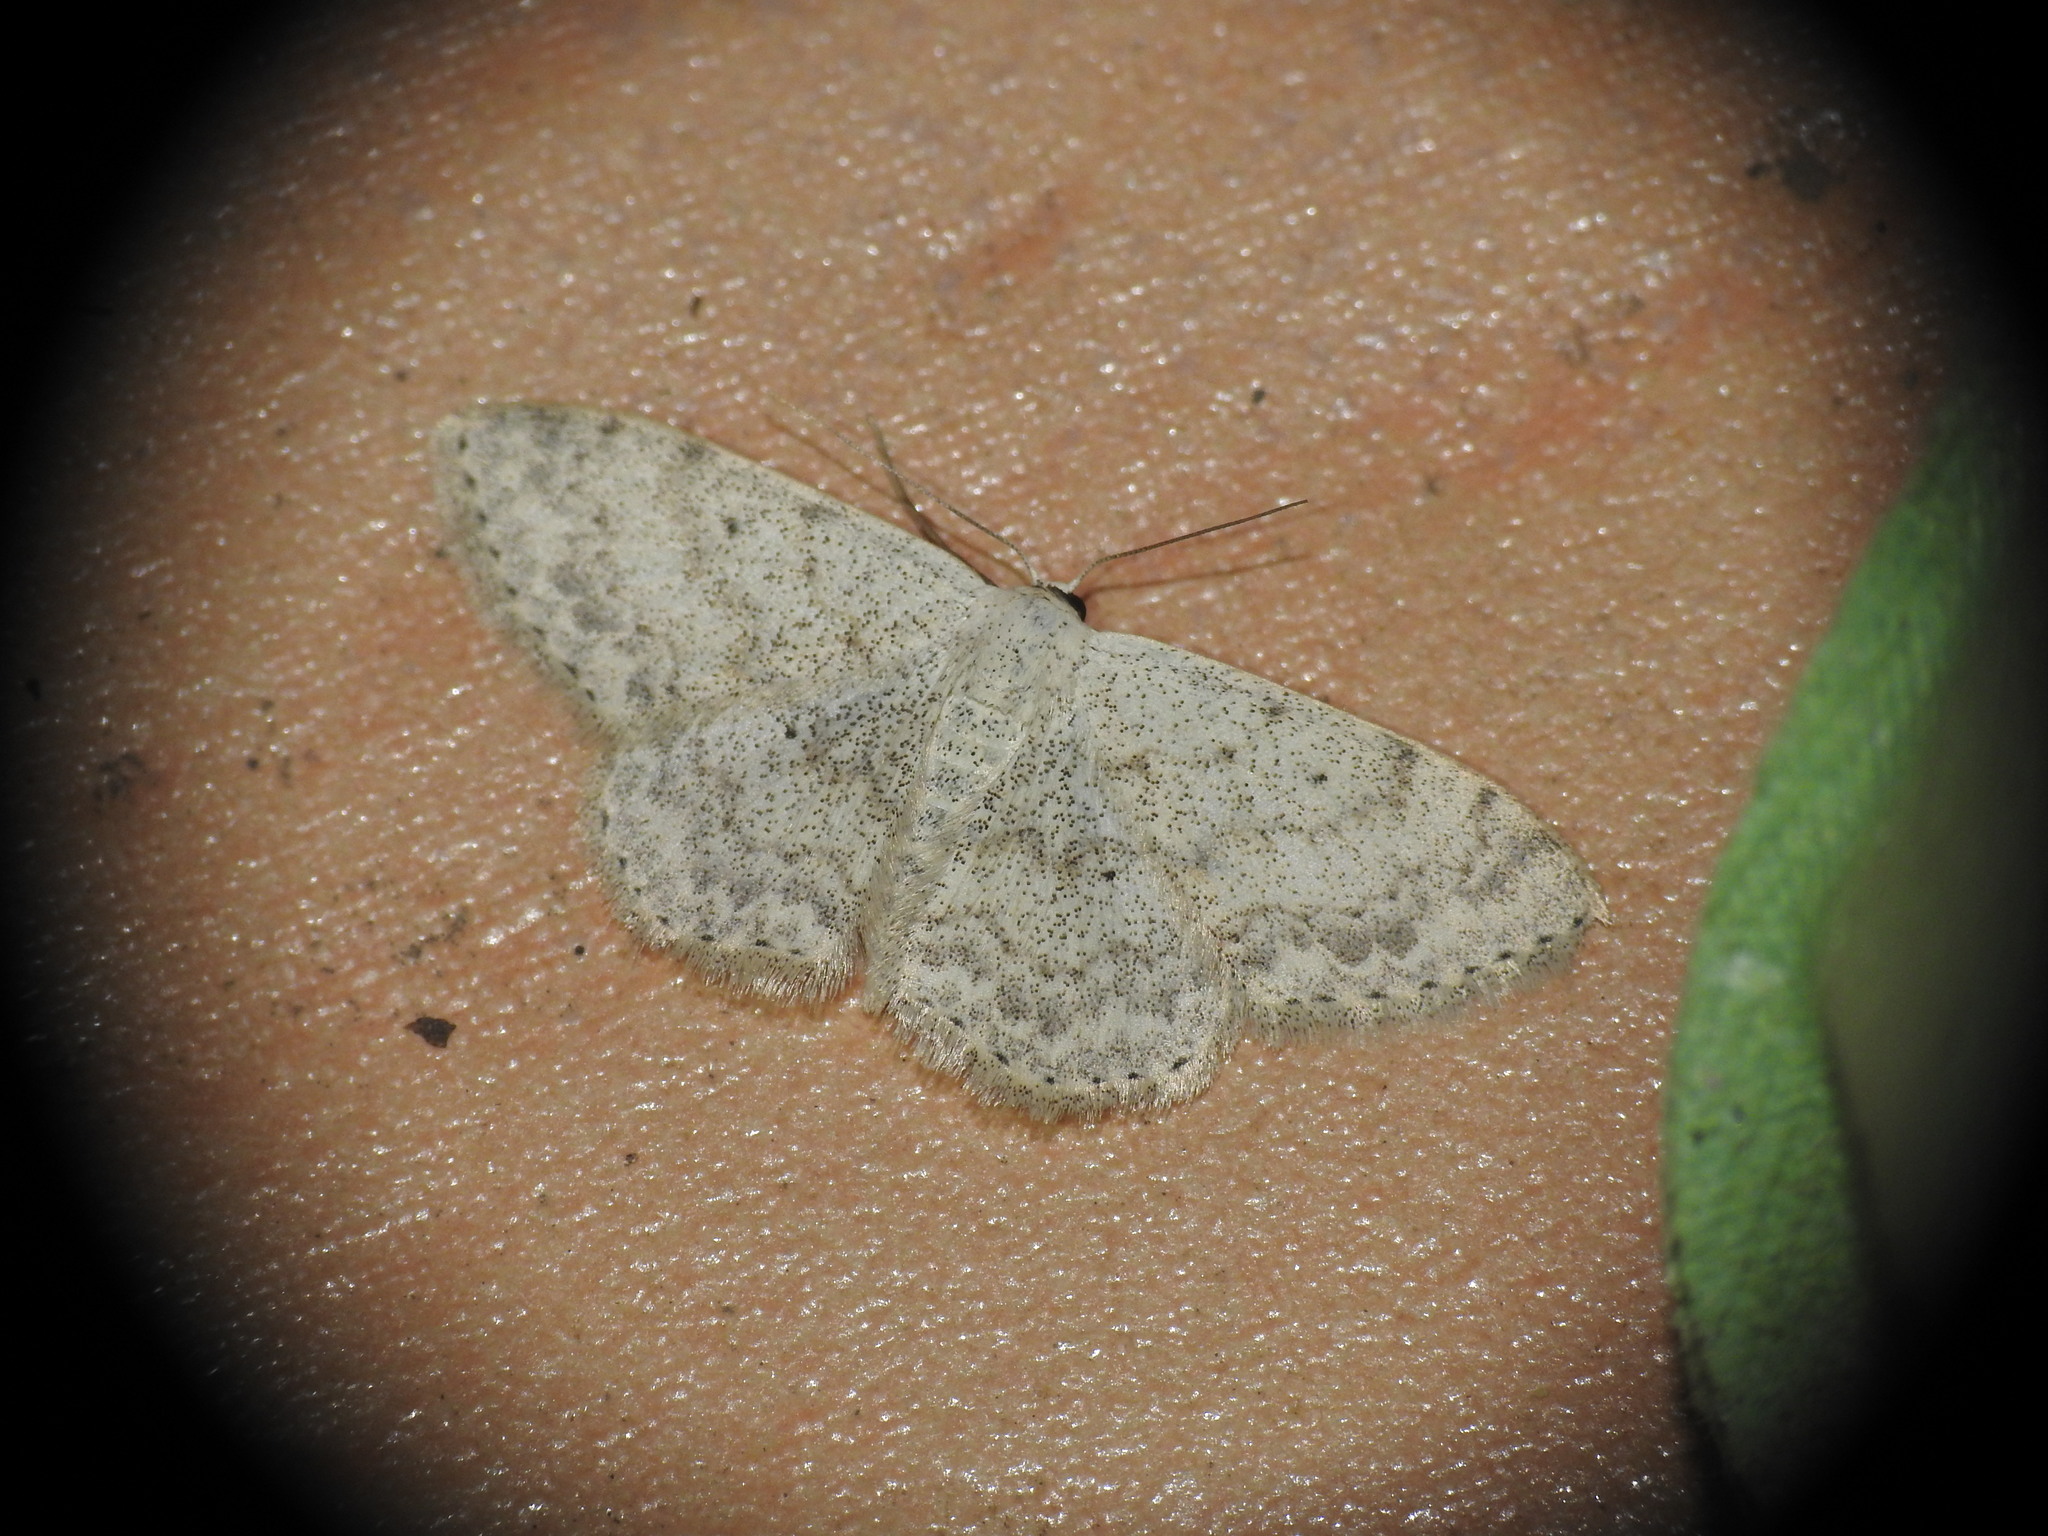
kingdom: Animalia
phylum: Arthropoda
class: Insecta
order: Lepidoptera
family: Geometridae
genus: Scopula
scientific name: Scopula marginepunctata
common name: Mullein wave
